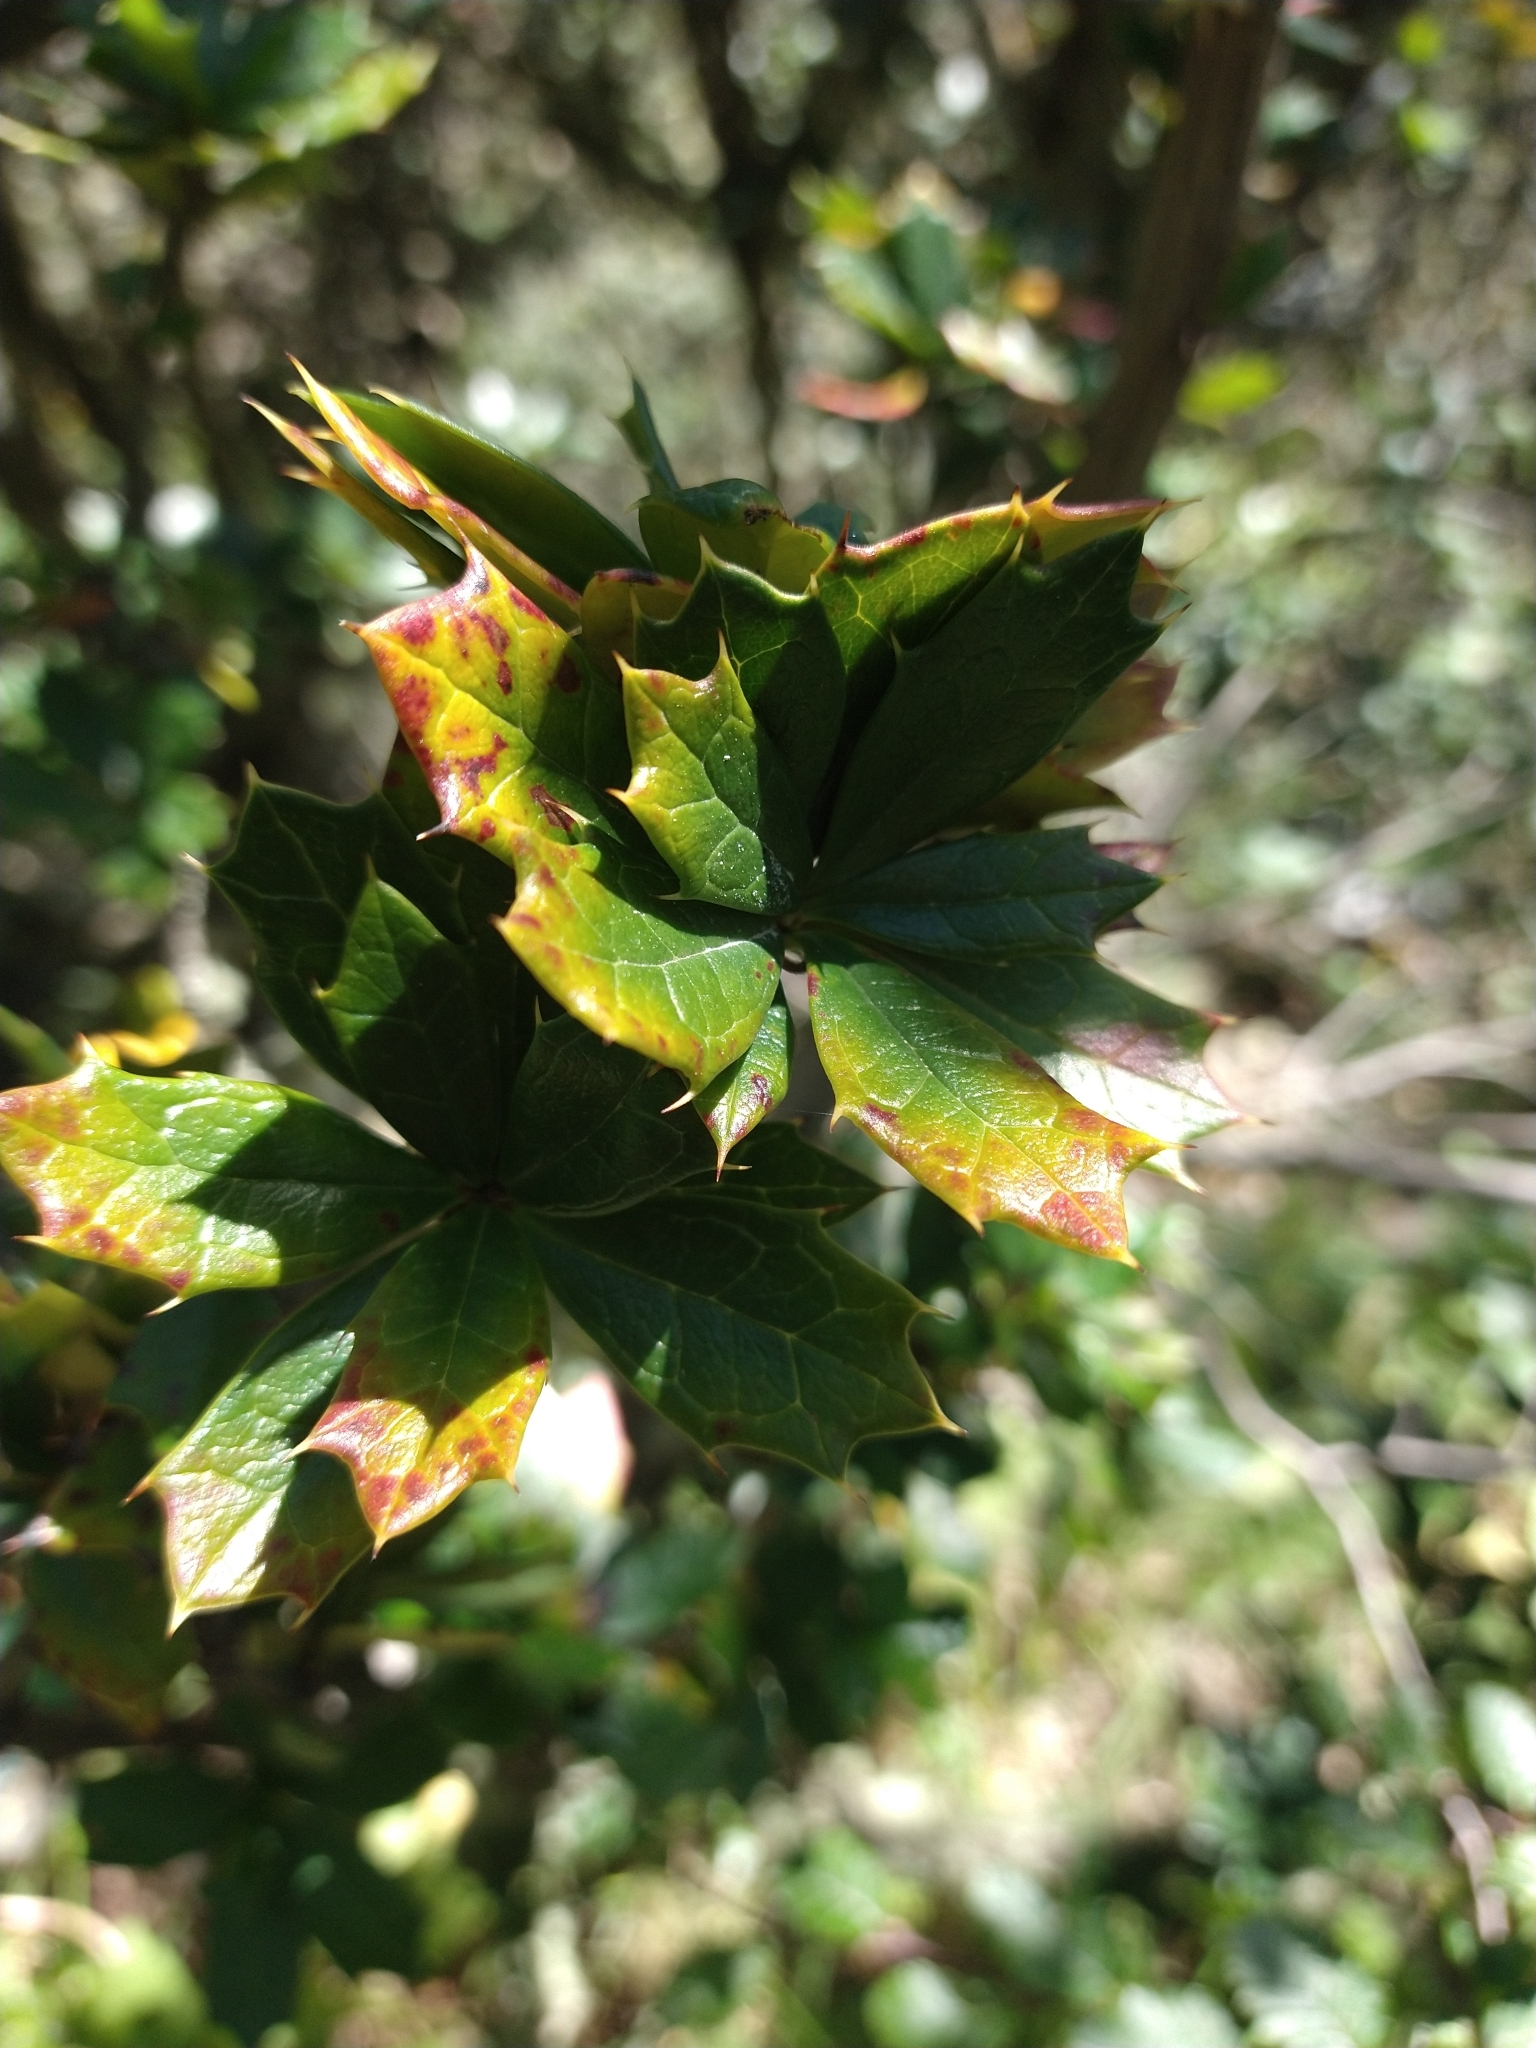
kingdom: Plantae
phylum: Tracheophyta
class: Magnoliopsida
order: Ranunculales
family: Berberidaceae
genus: Berberis
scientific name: Berberis ilicifolia
